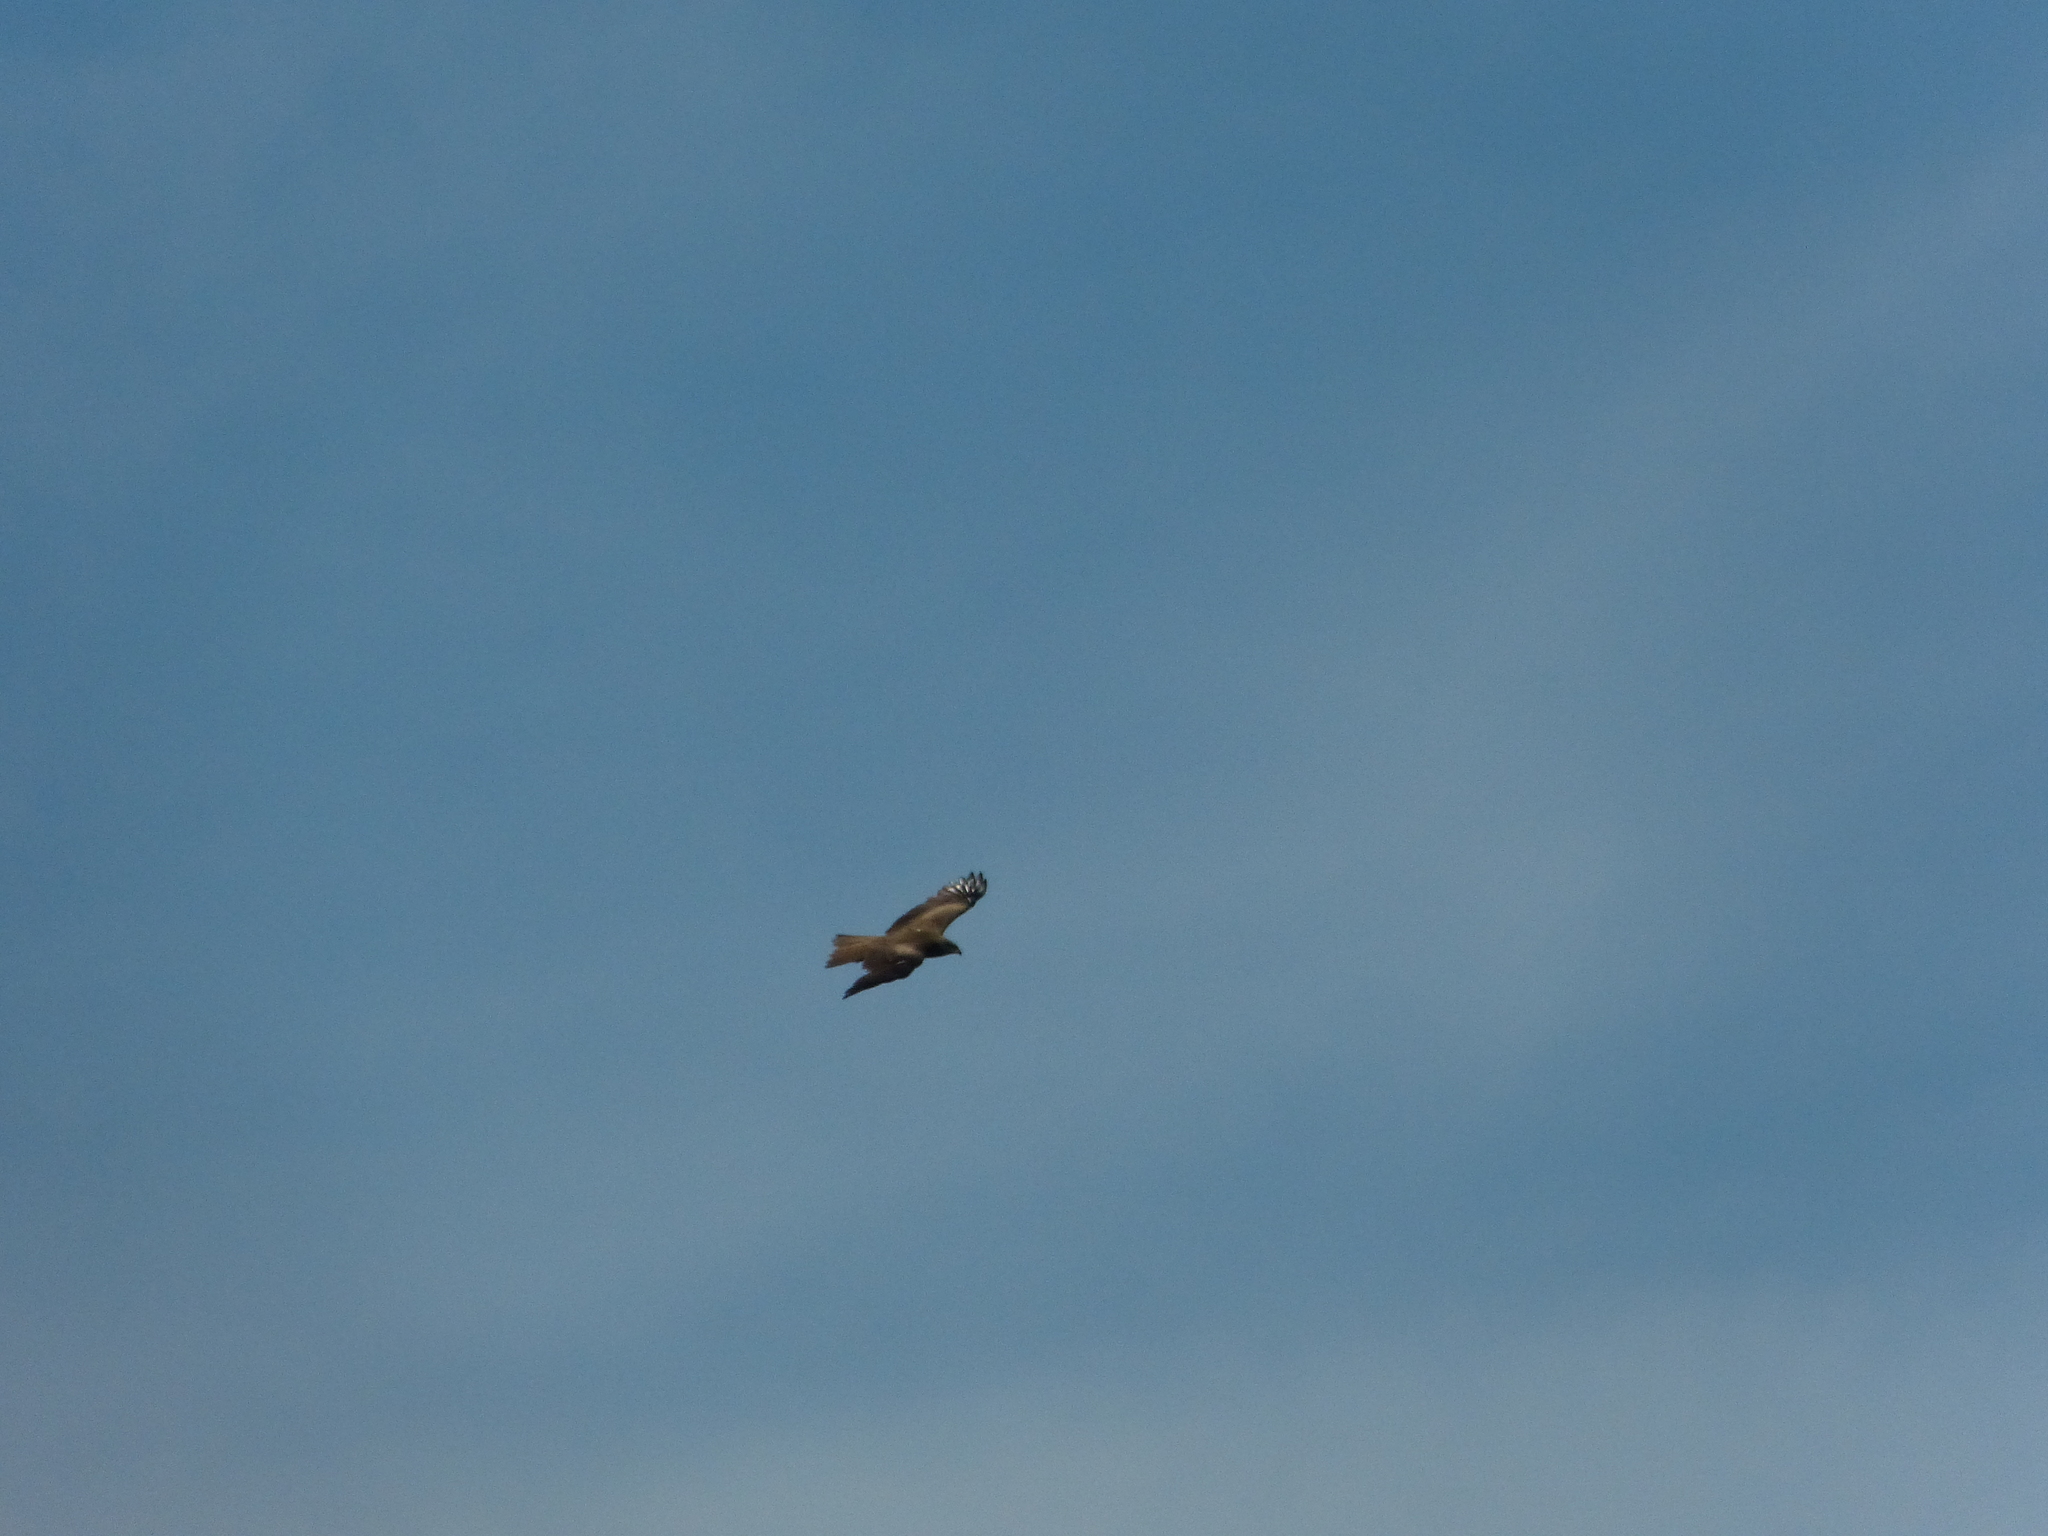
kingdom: Animalia
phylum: Chordata
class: Aves
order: Accipitriformes
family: Accipitridae
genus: Milvus
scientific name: Milvus migrans
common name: Black kite
